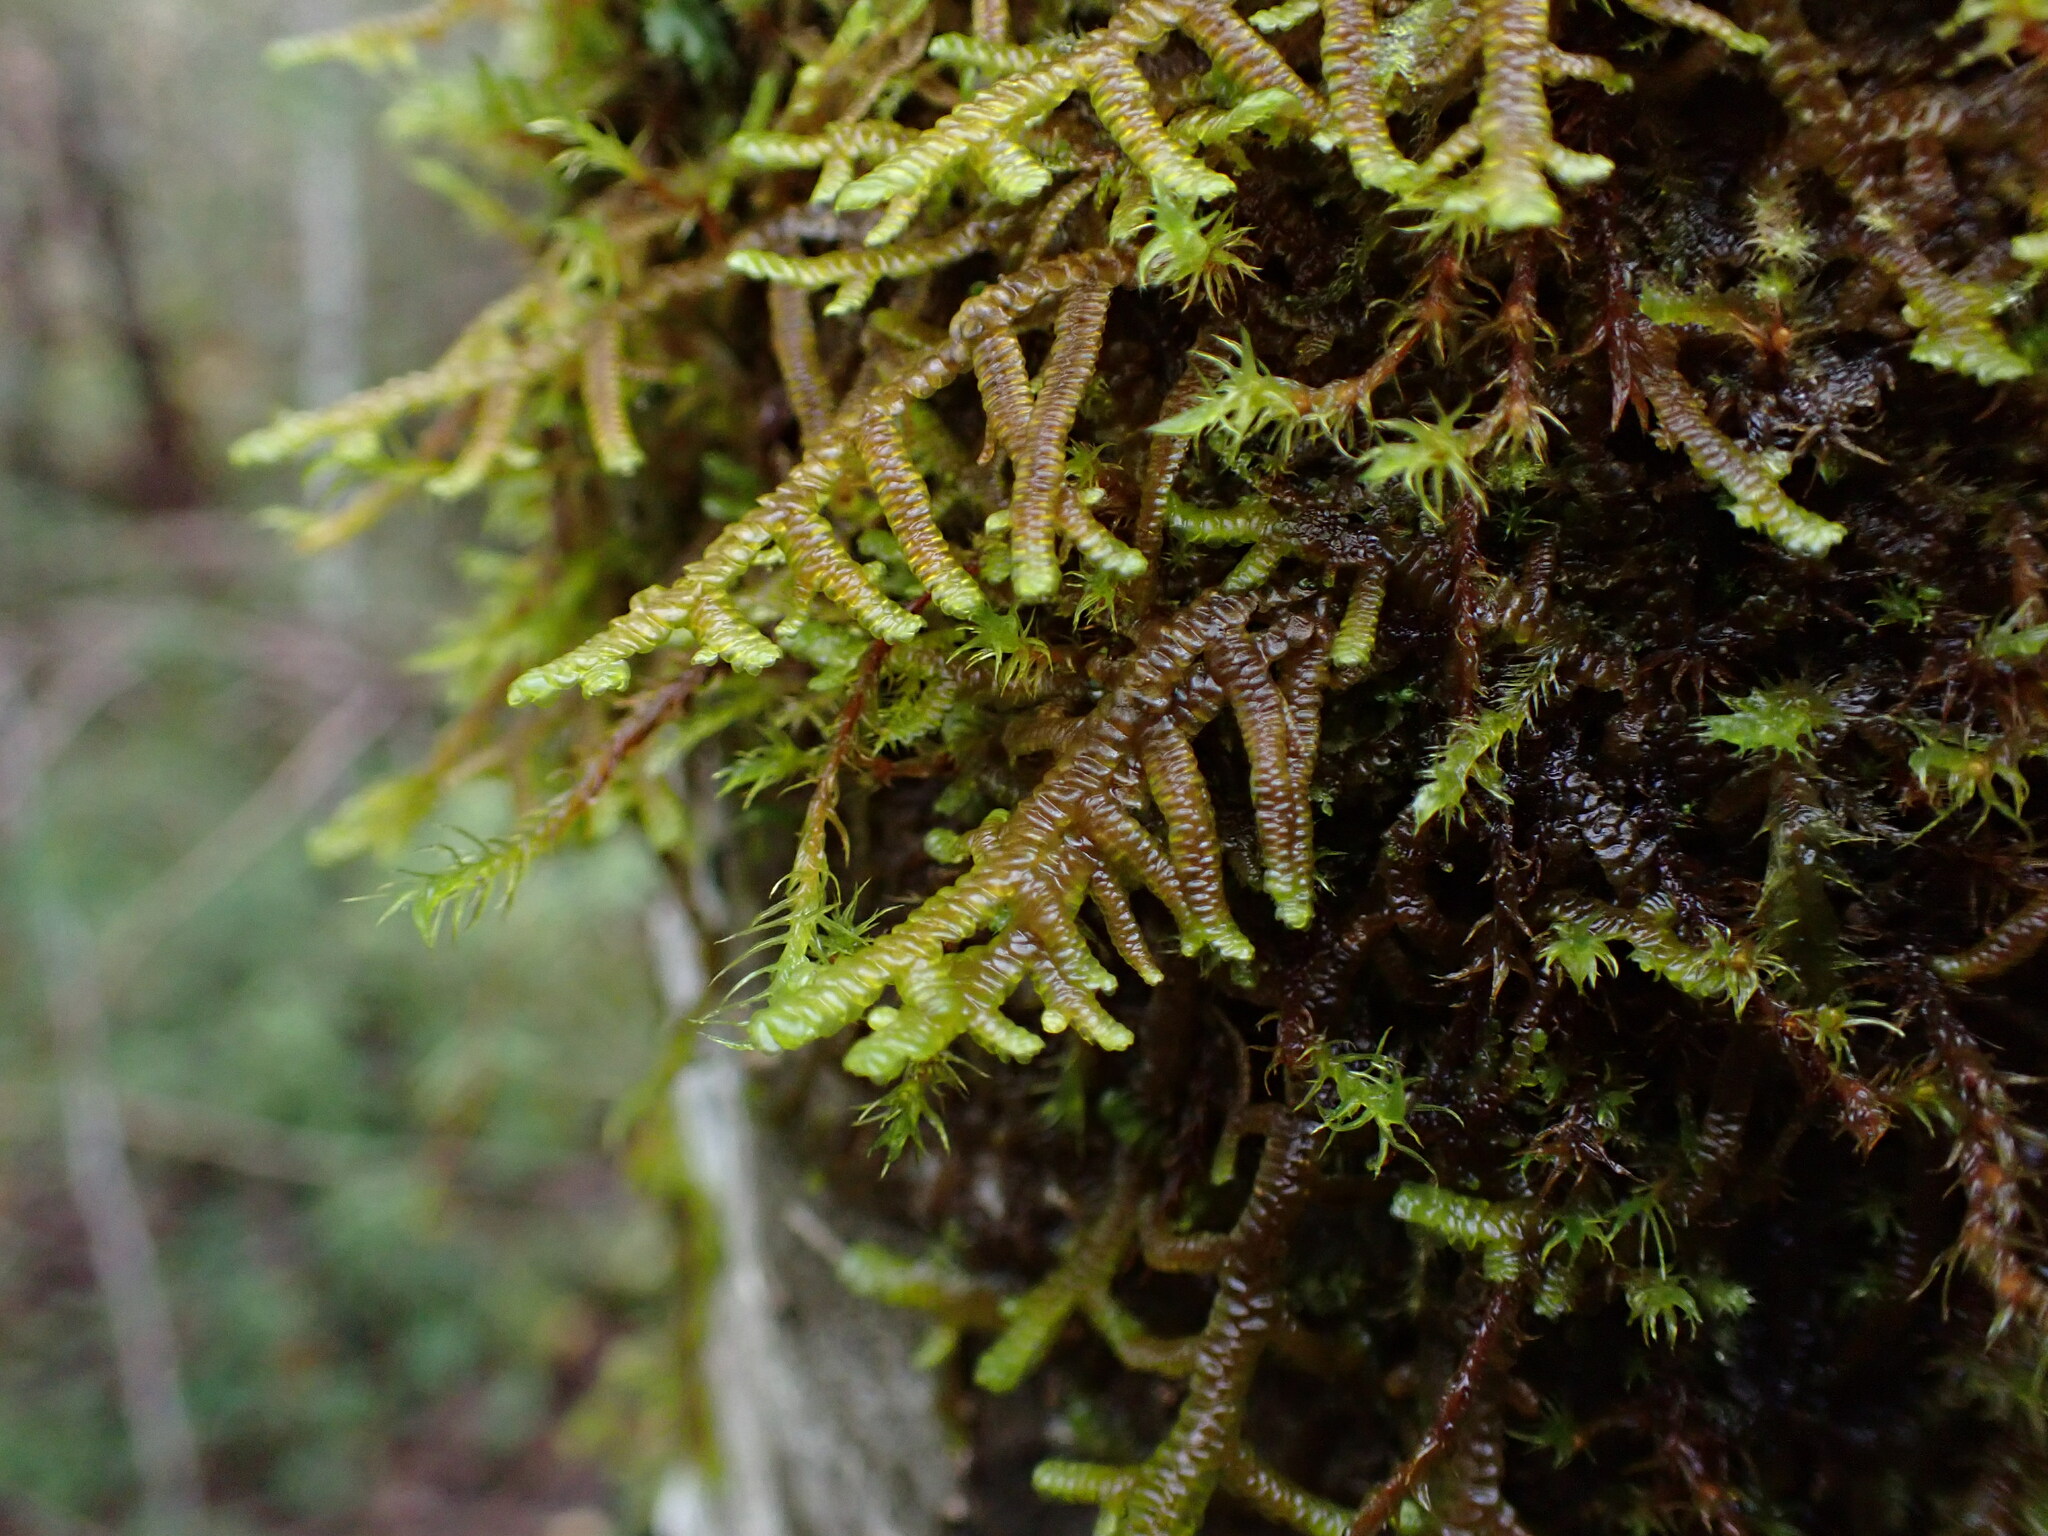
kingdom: Plantae
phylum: Marchantiophyta
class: Jungermanniopsida
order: Porellales
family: Porellaceae
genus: Porella
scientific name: Porella navicularis
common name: Tree ruffle liverwort
